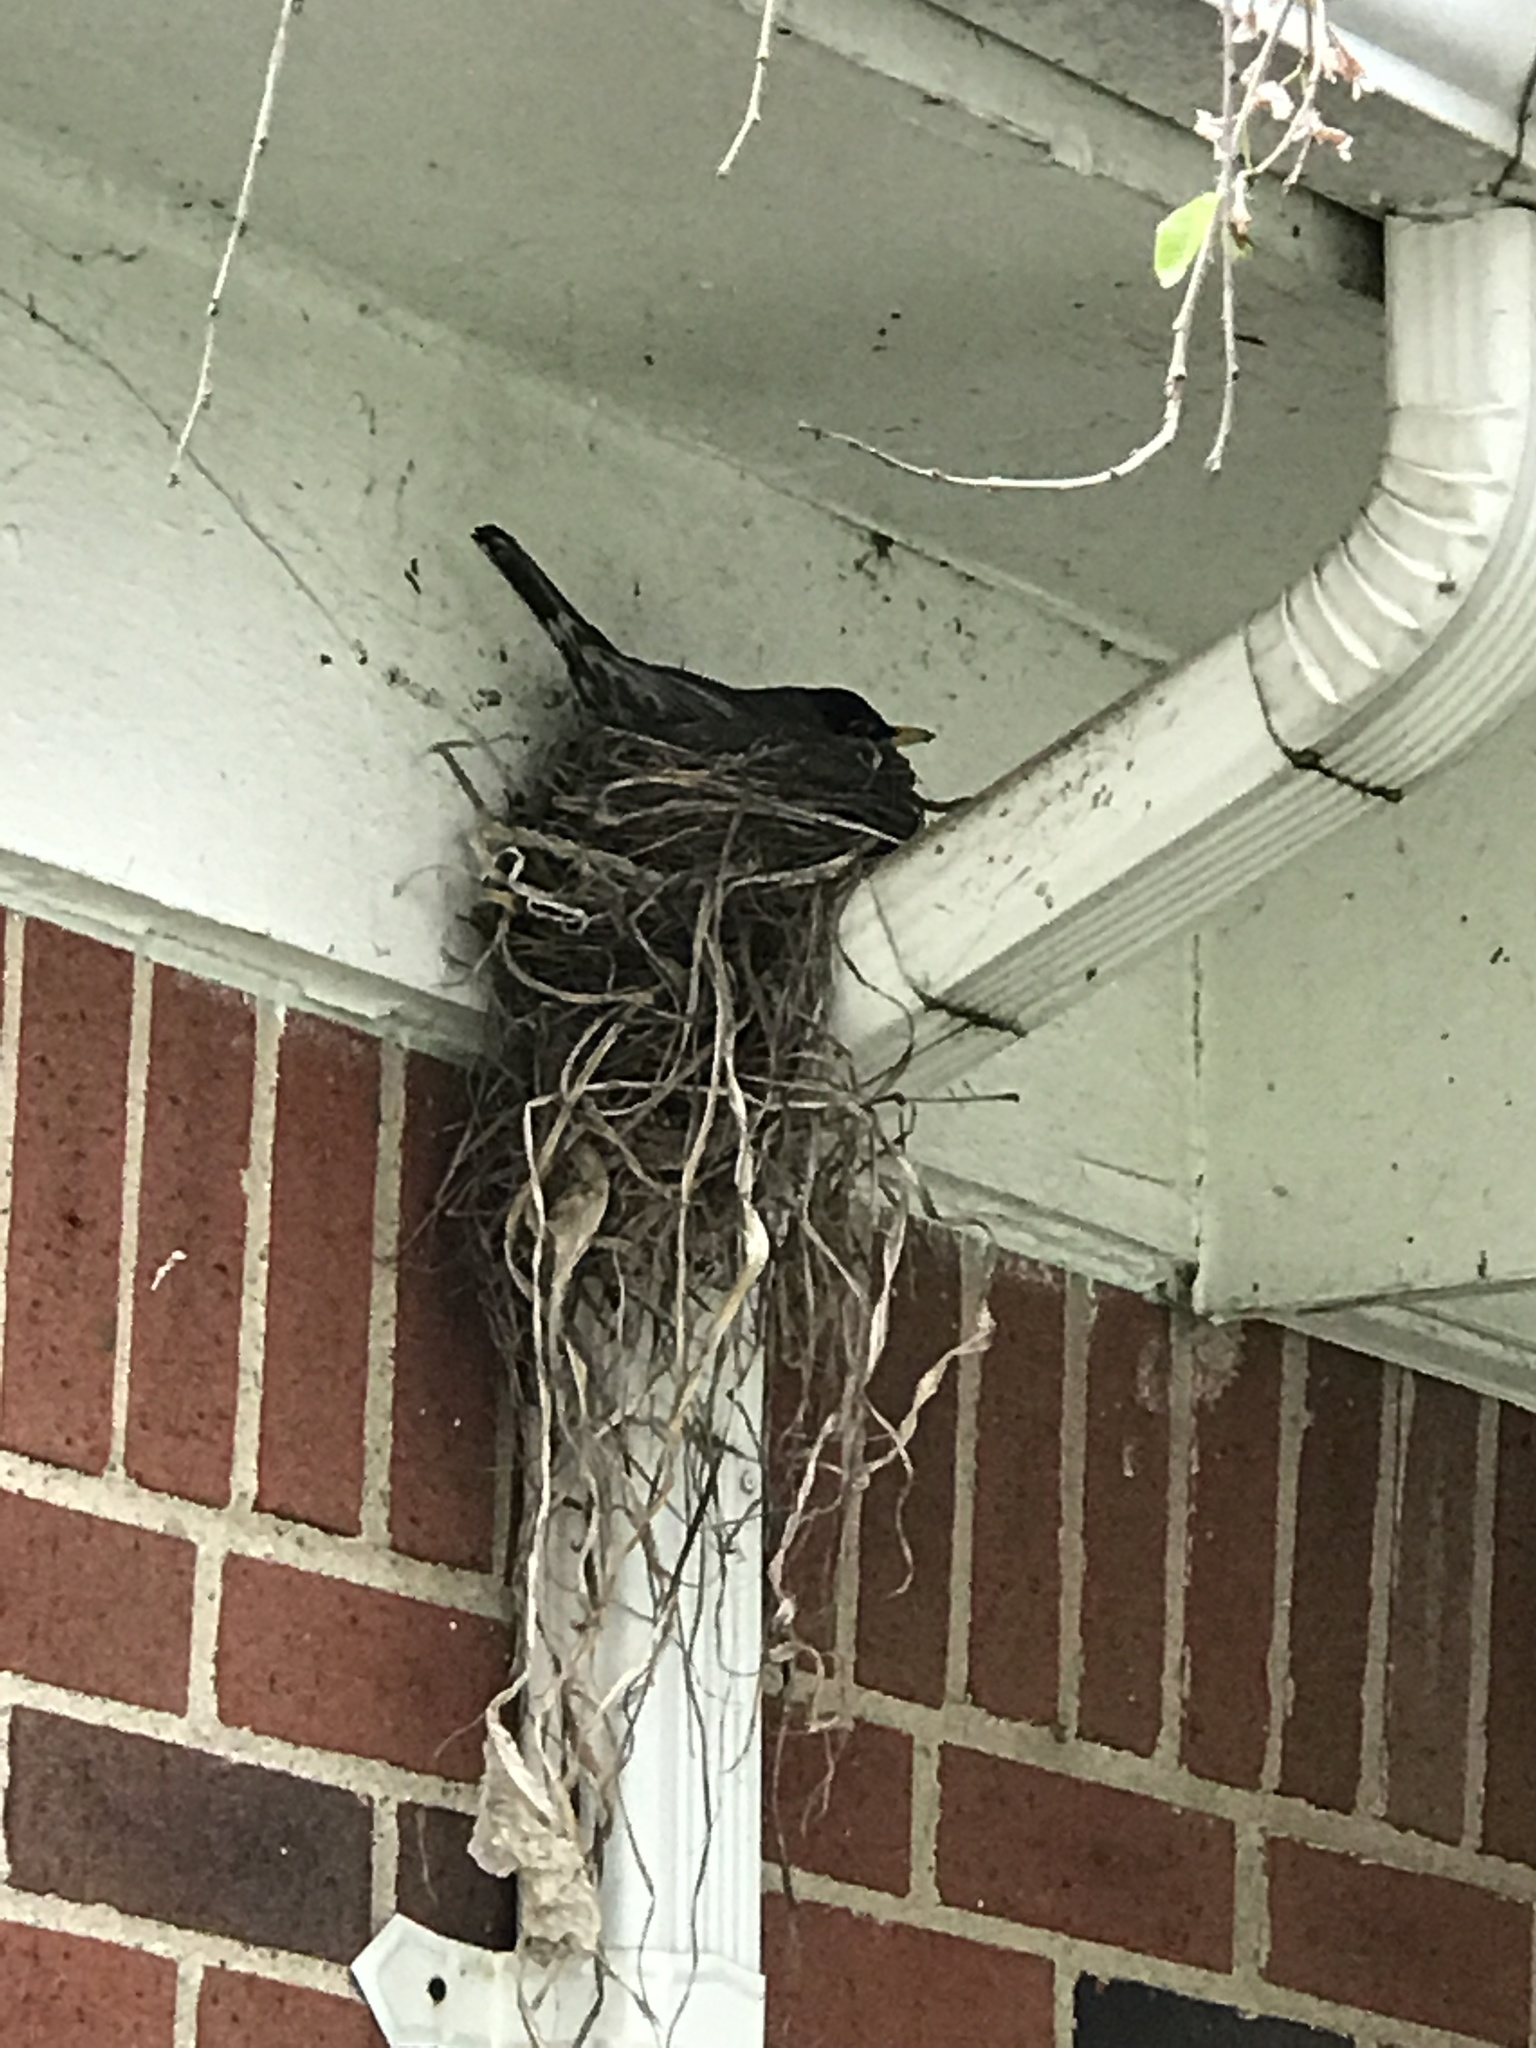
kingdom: Animalia
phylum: Chordata
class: Aves
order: Passeriformes
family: Turdidae
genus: Turdus
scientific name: Turdus migratorius
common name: American robin
